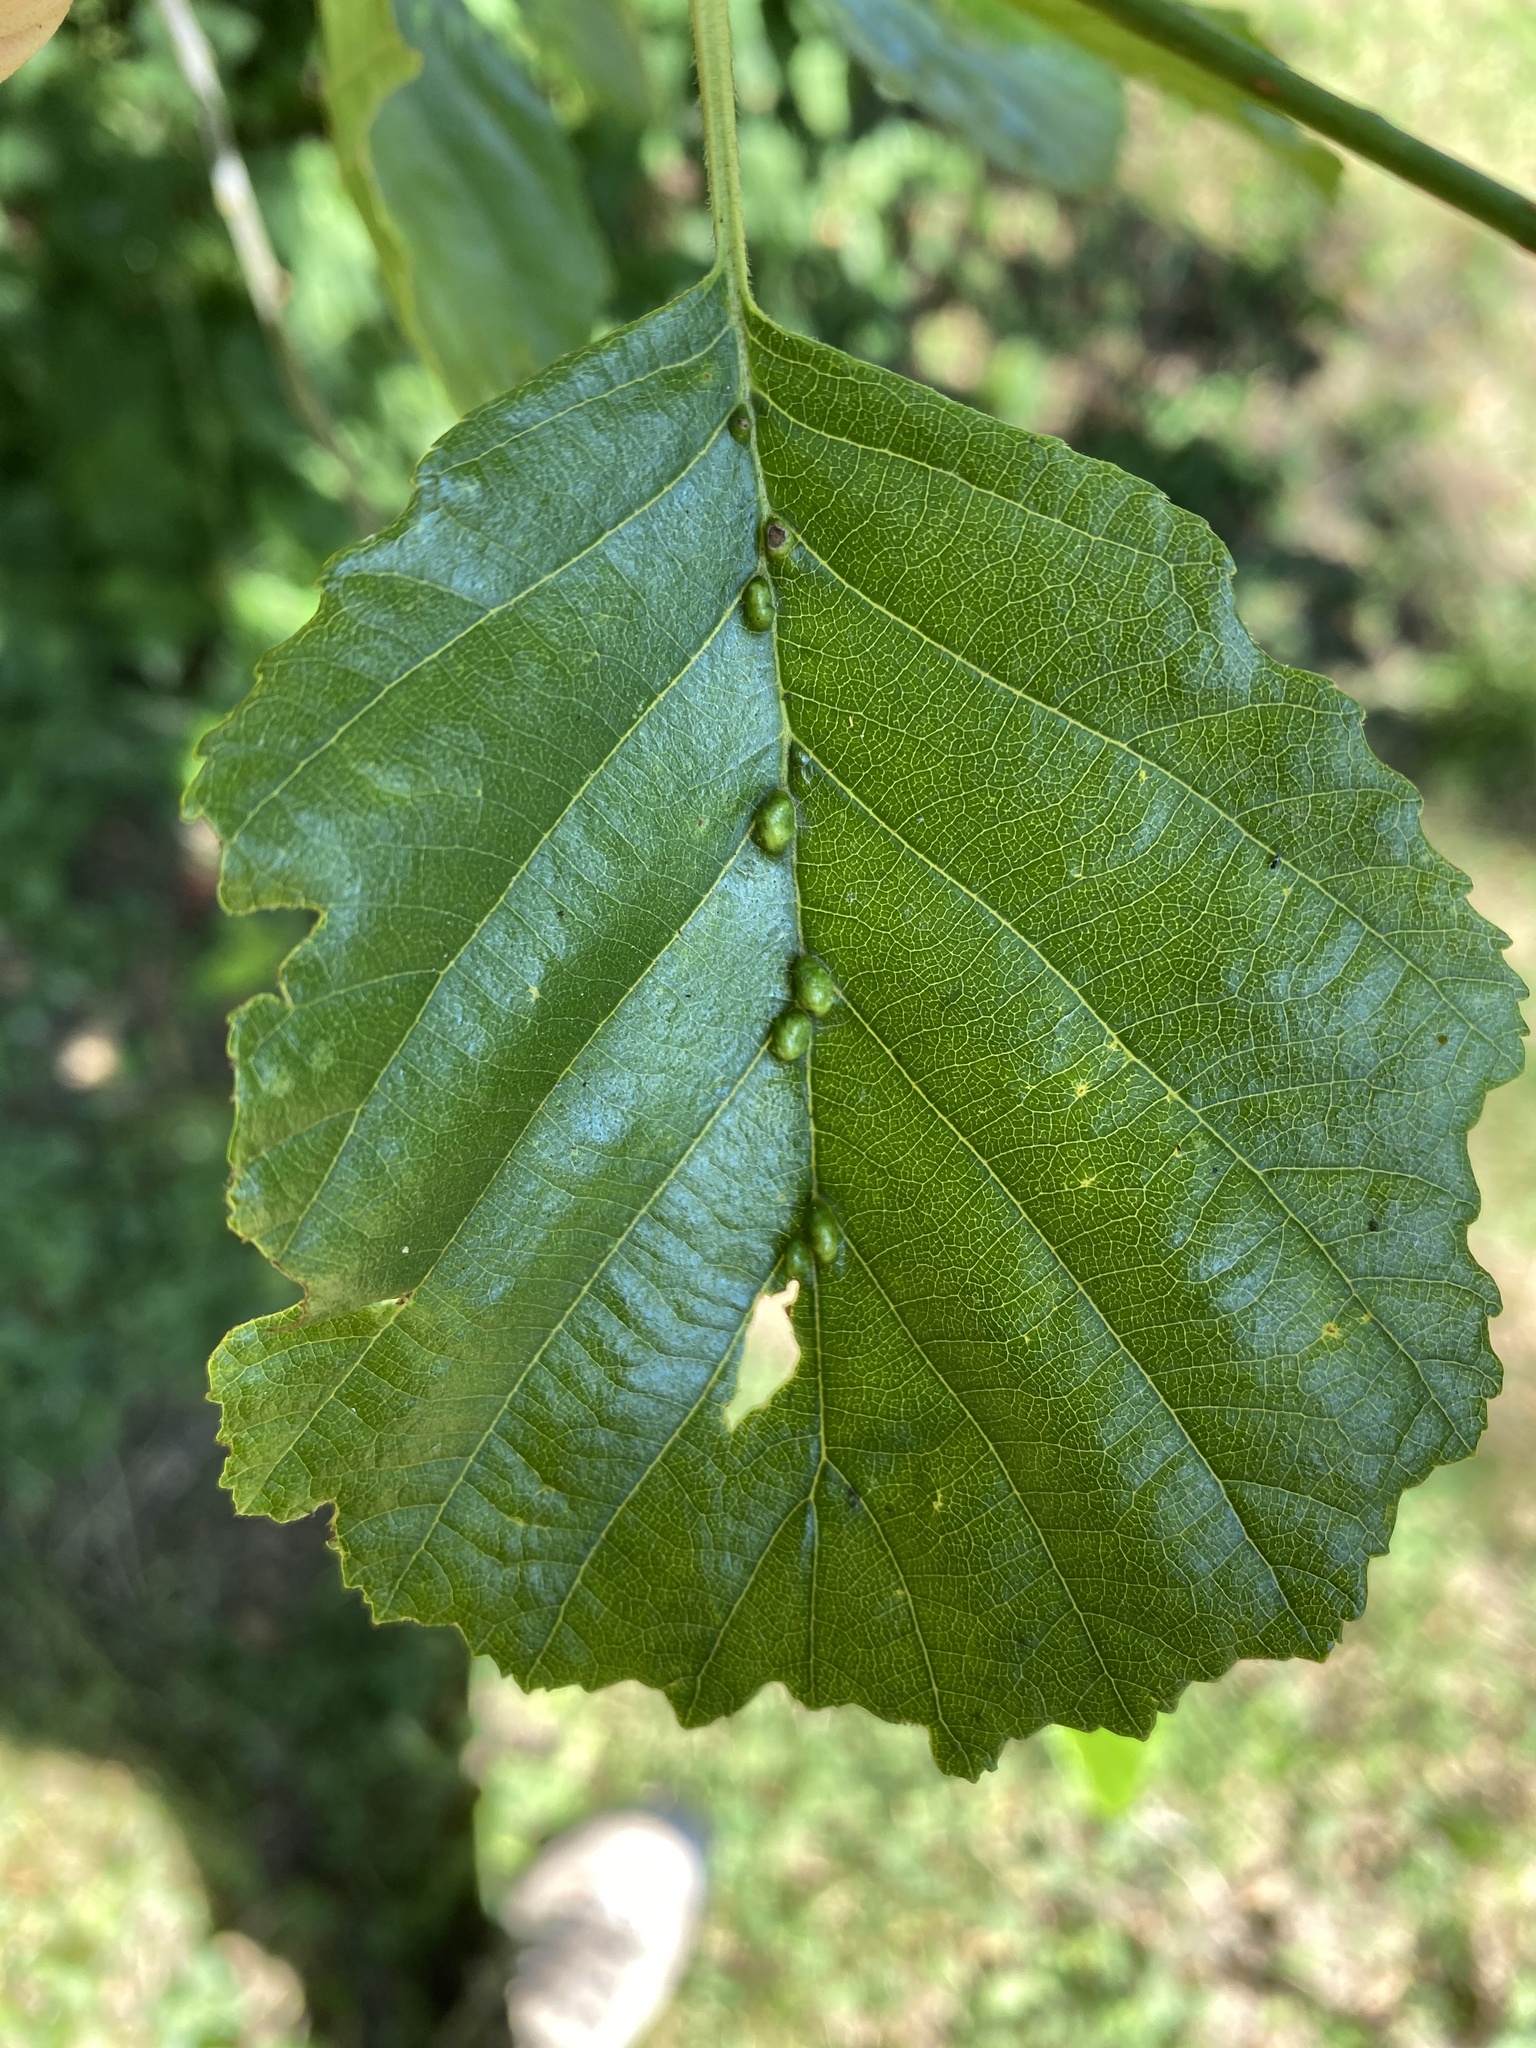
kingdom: Animalia
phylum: Arthropoda
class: Arachnida
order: Trombidiformes
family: Eriophyidae
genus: Eriophyes
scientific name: Eriophyes inangulis
